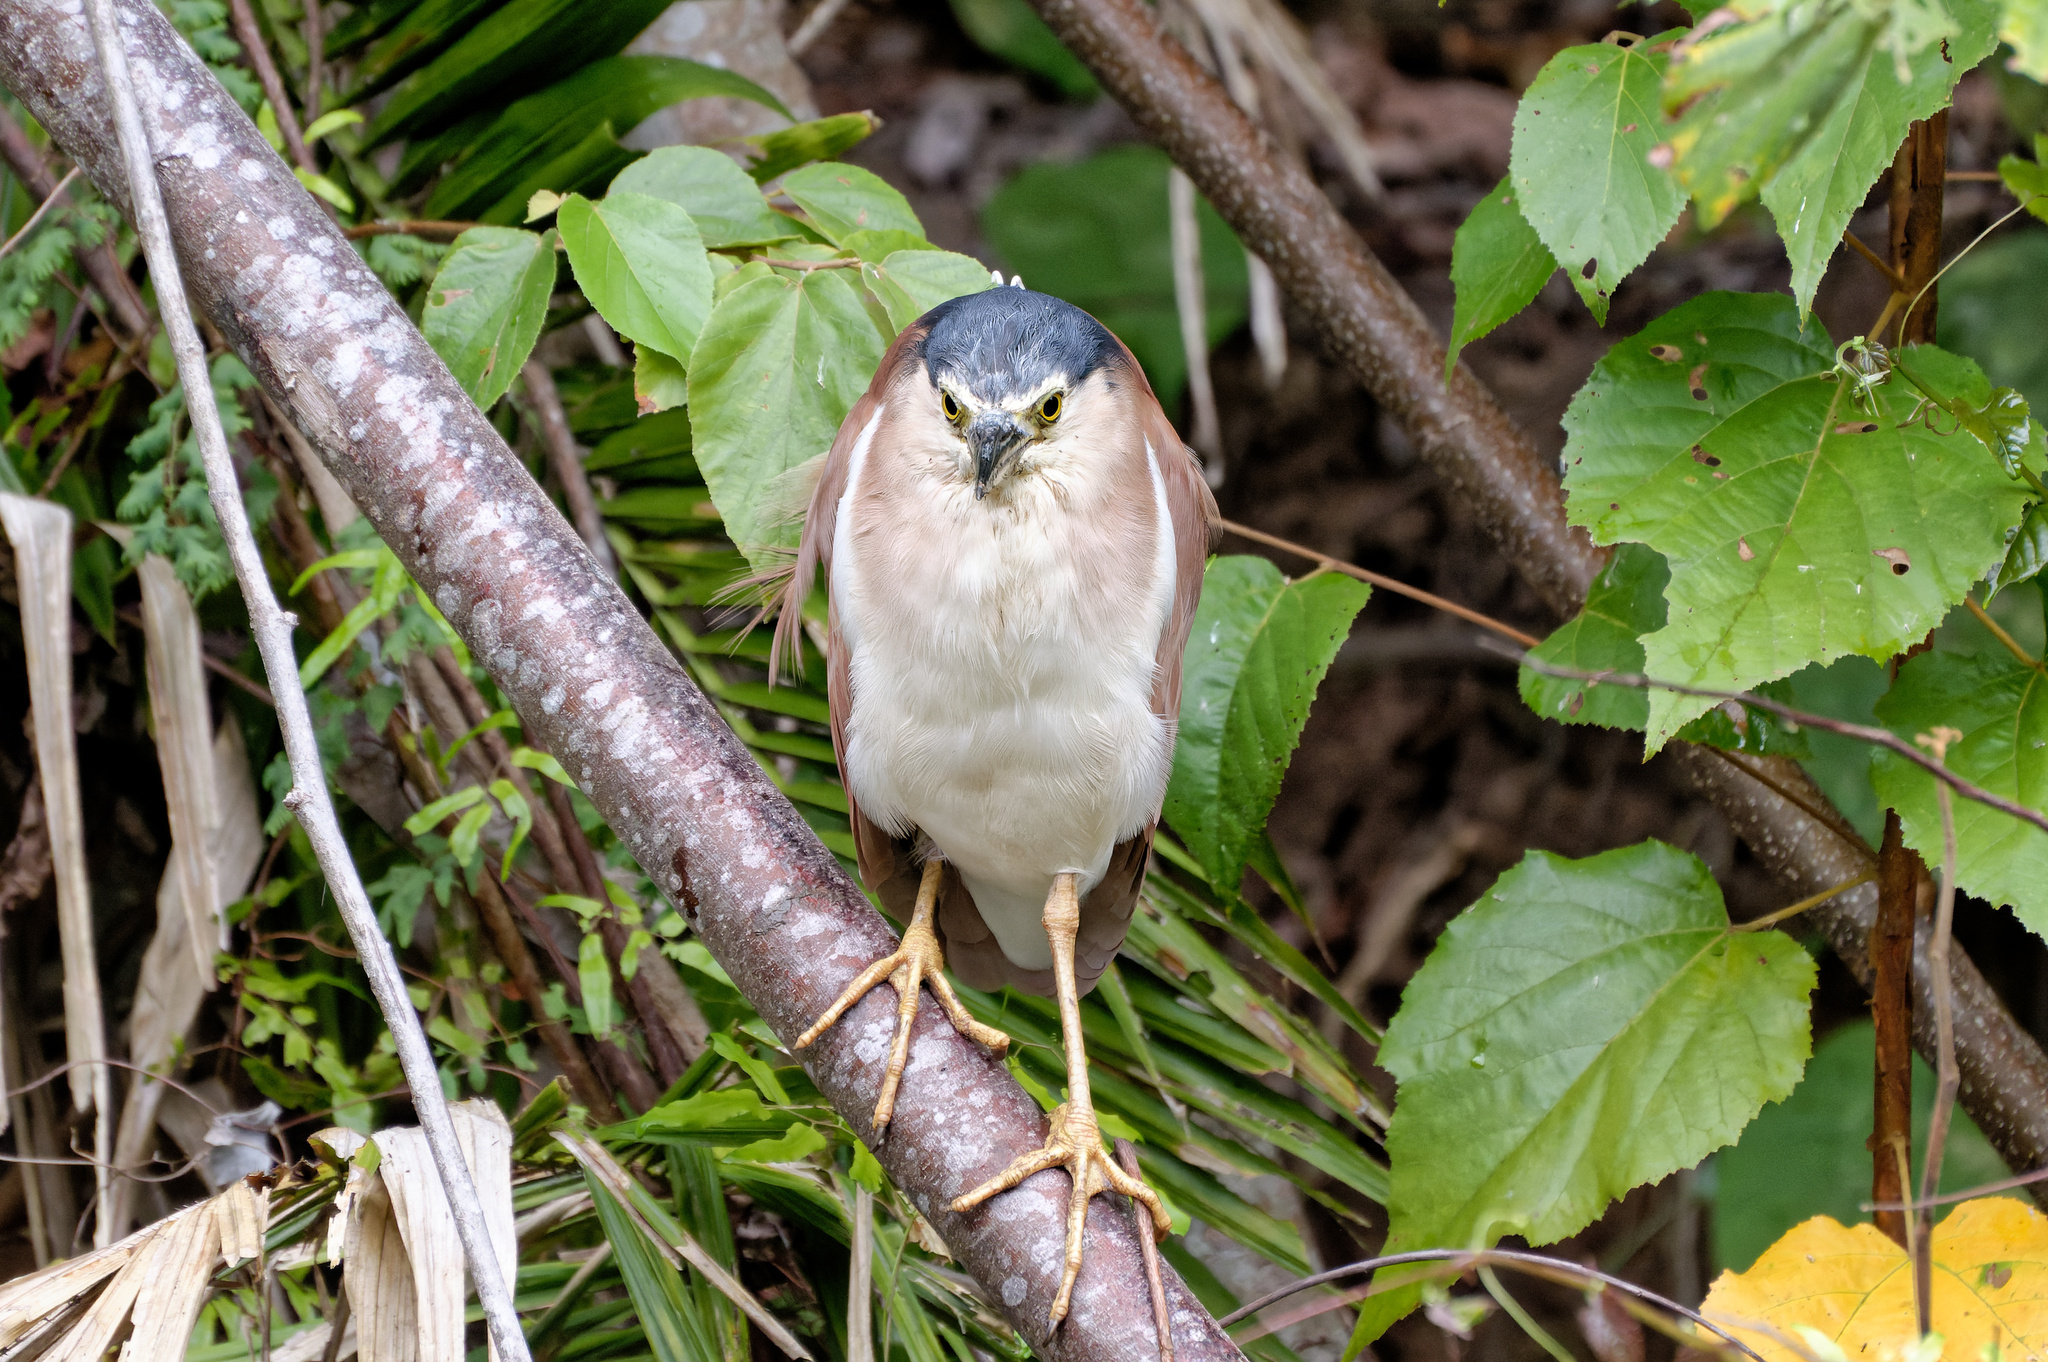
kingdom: Animalia
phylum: Chordata
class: Aves
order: Pelecaniformes
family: Ardeidae
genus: Nycticorax
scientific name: Nycticorax caledonicus
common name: Rufous night-heron
